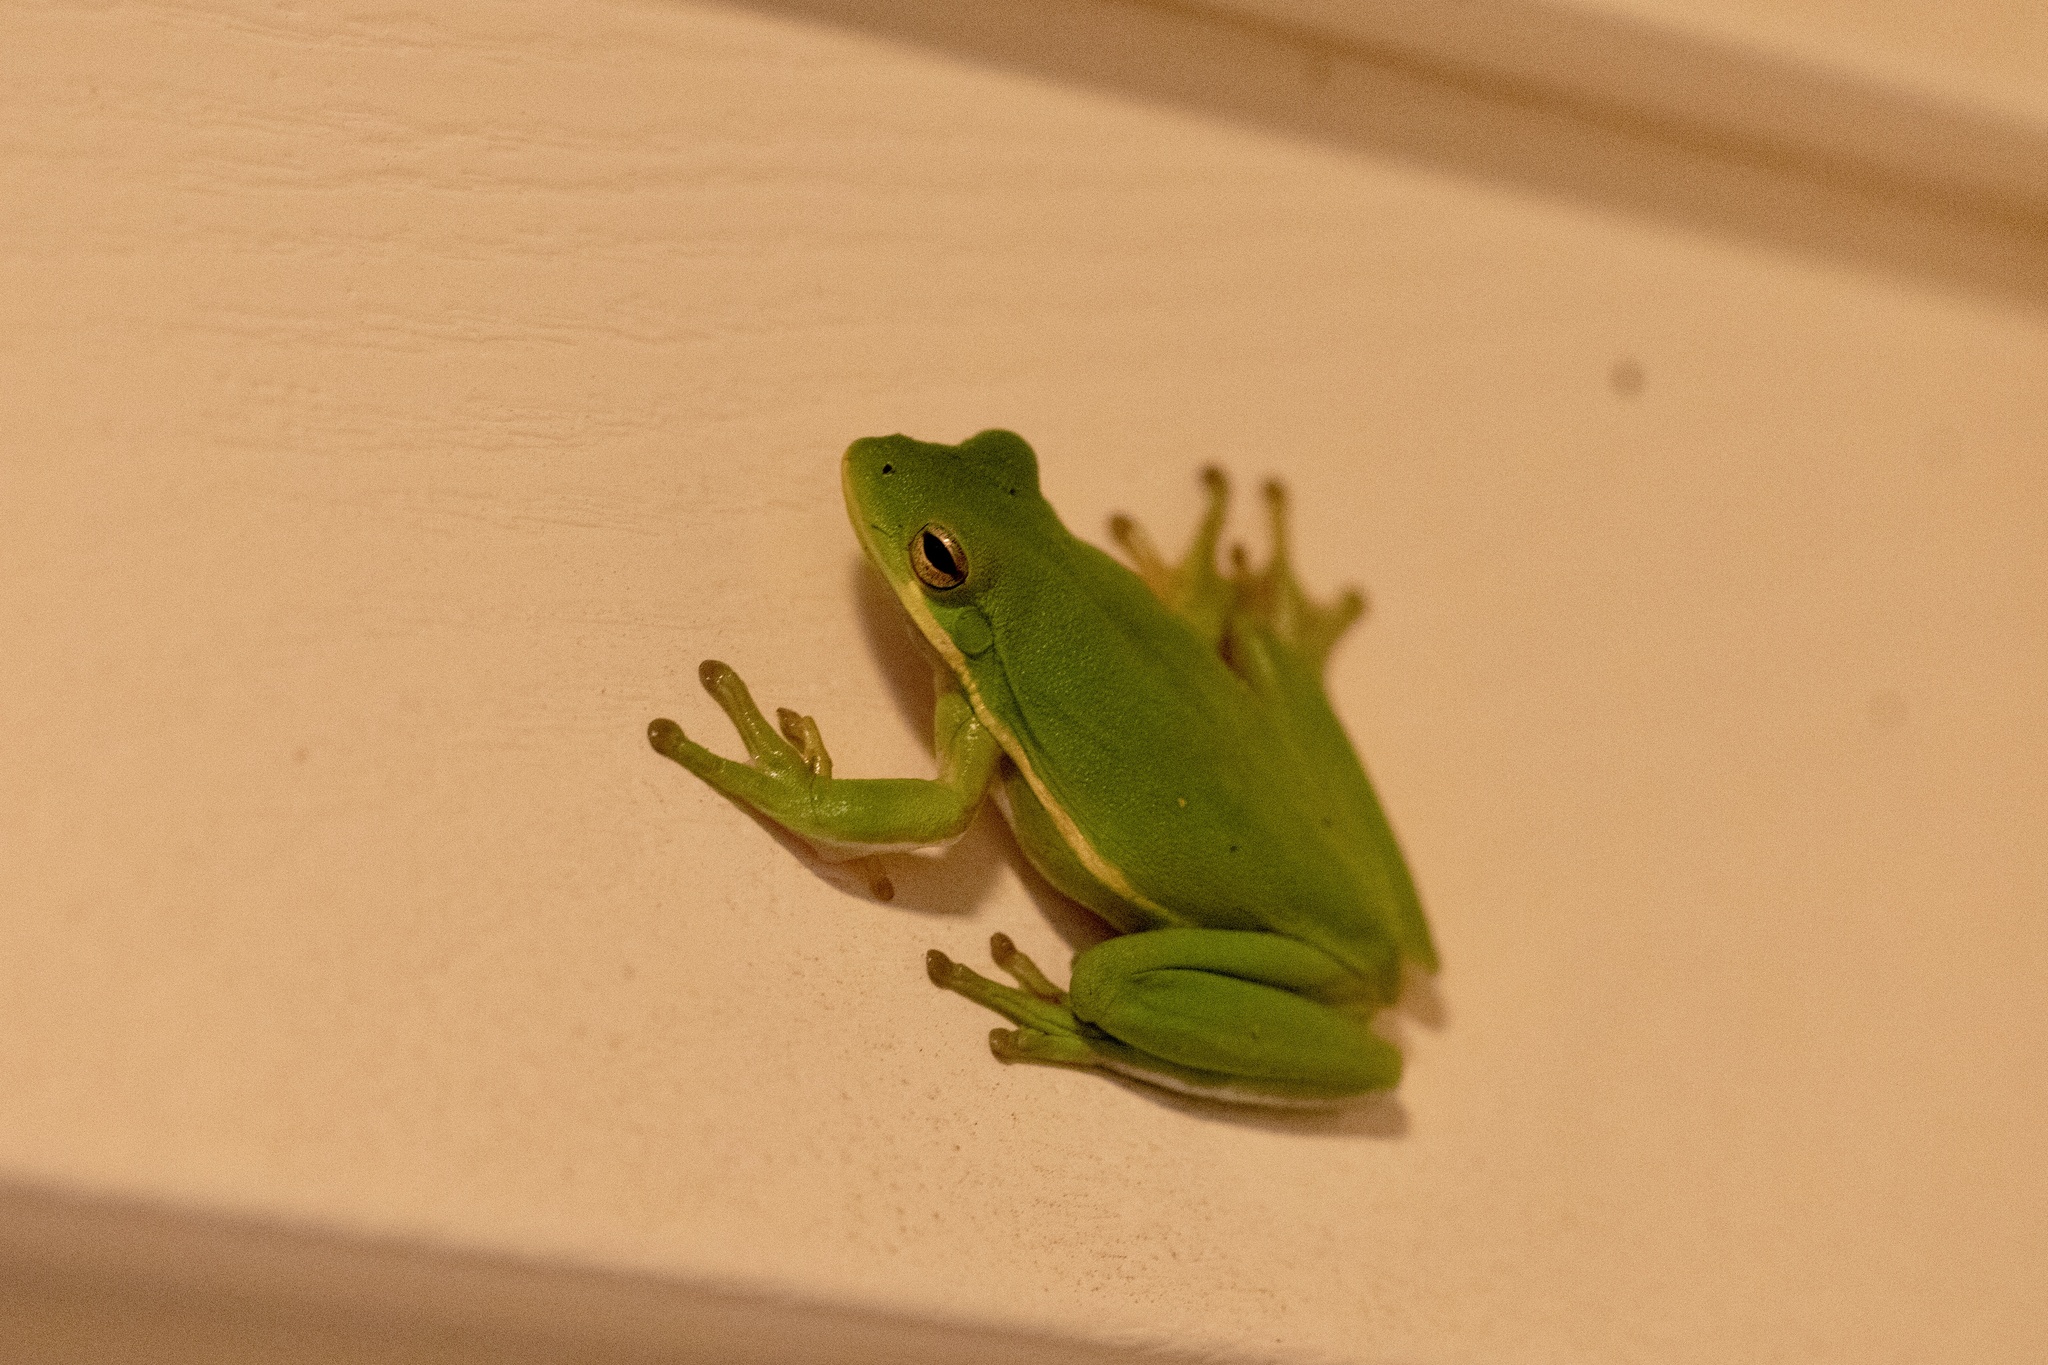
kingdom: Animalia
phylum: Chordata
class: Amphibia
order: Anura
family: Hylidae
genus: Dryophytes
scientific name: Dryophytes cinereus
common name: Green treefrog
